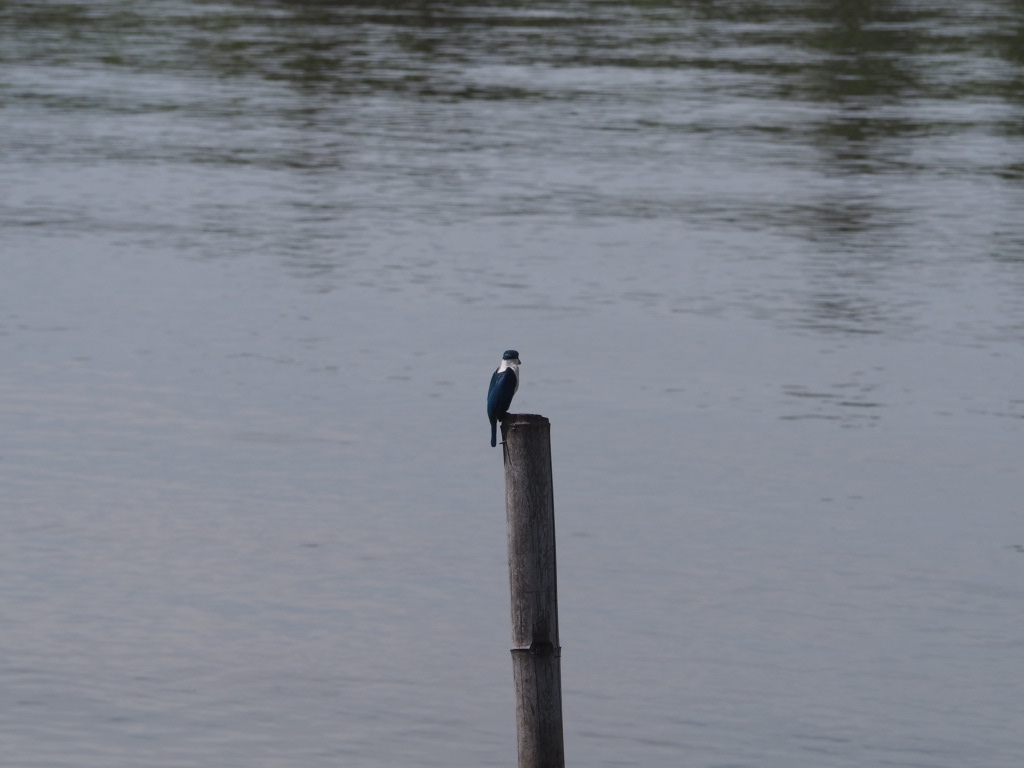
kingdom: Animalia
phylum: Chordata
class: Aves
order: Coraciiformes
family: Alcedinidae
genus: Todiramphus
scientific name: Todiramphus chloris
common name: Collared kingfisher
